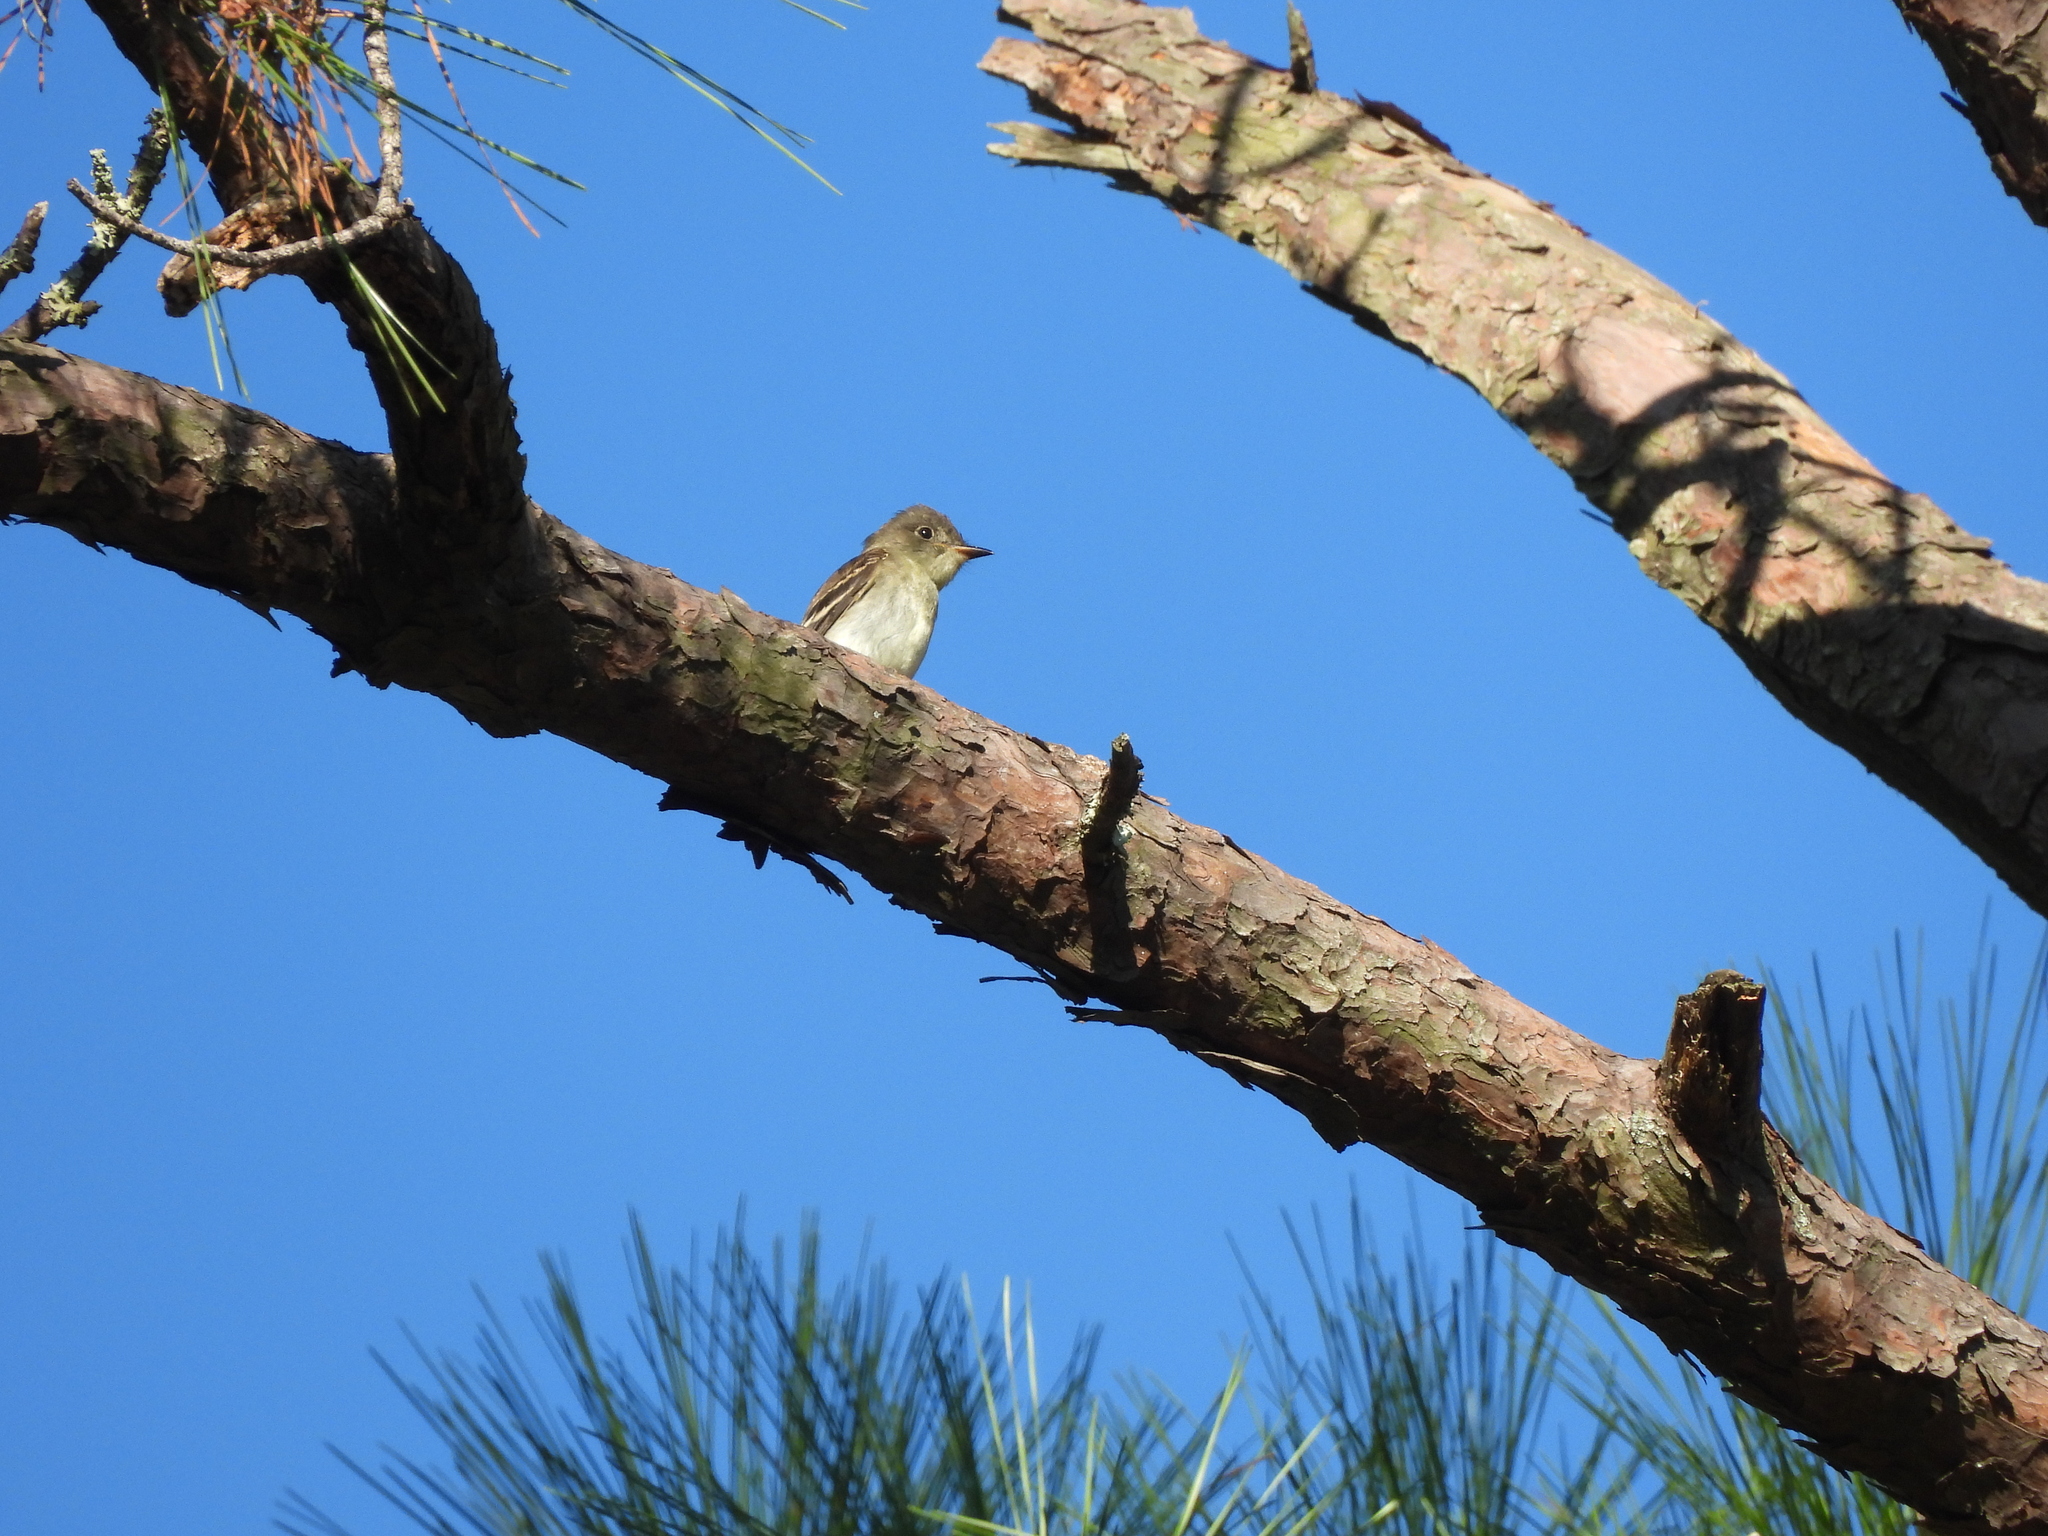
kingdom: Animalia
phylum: Chordata
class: Aves
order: Passeriformes
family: Tyrannidae
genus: Contopus
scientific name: Contopus virens
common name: Eastern wood-pewee
